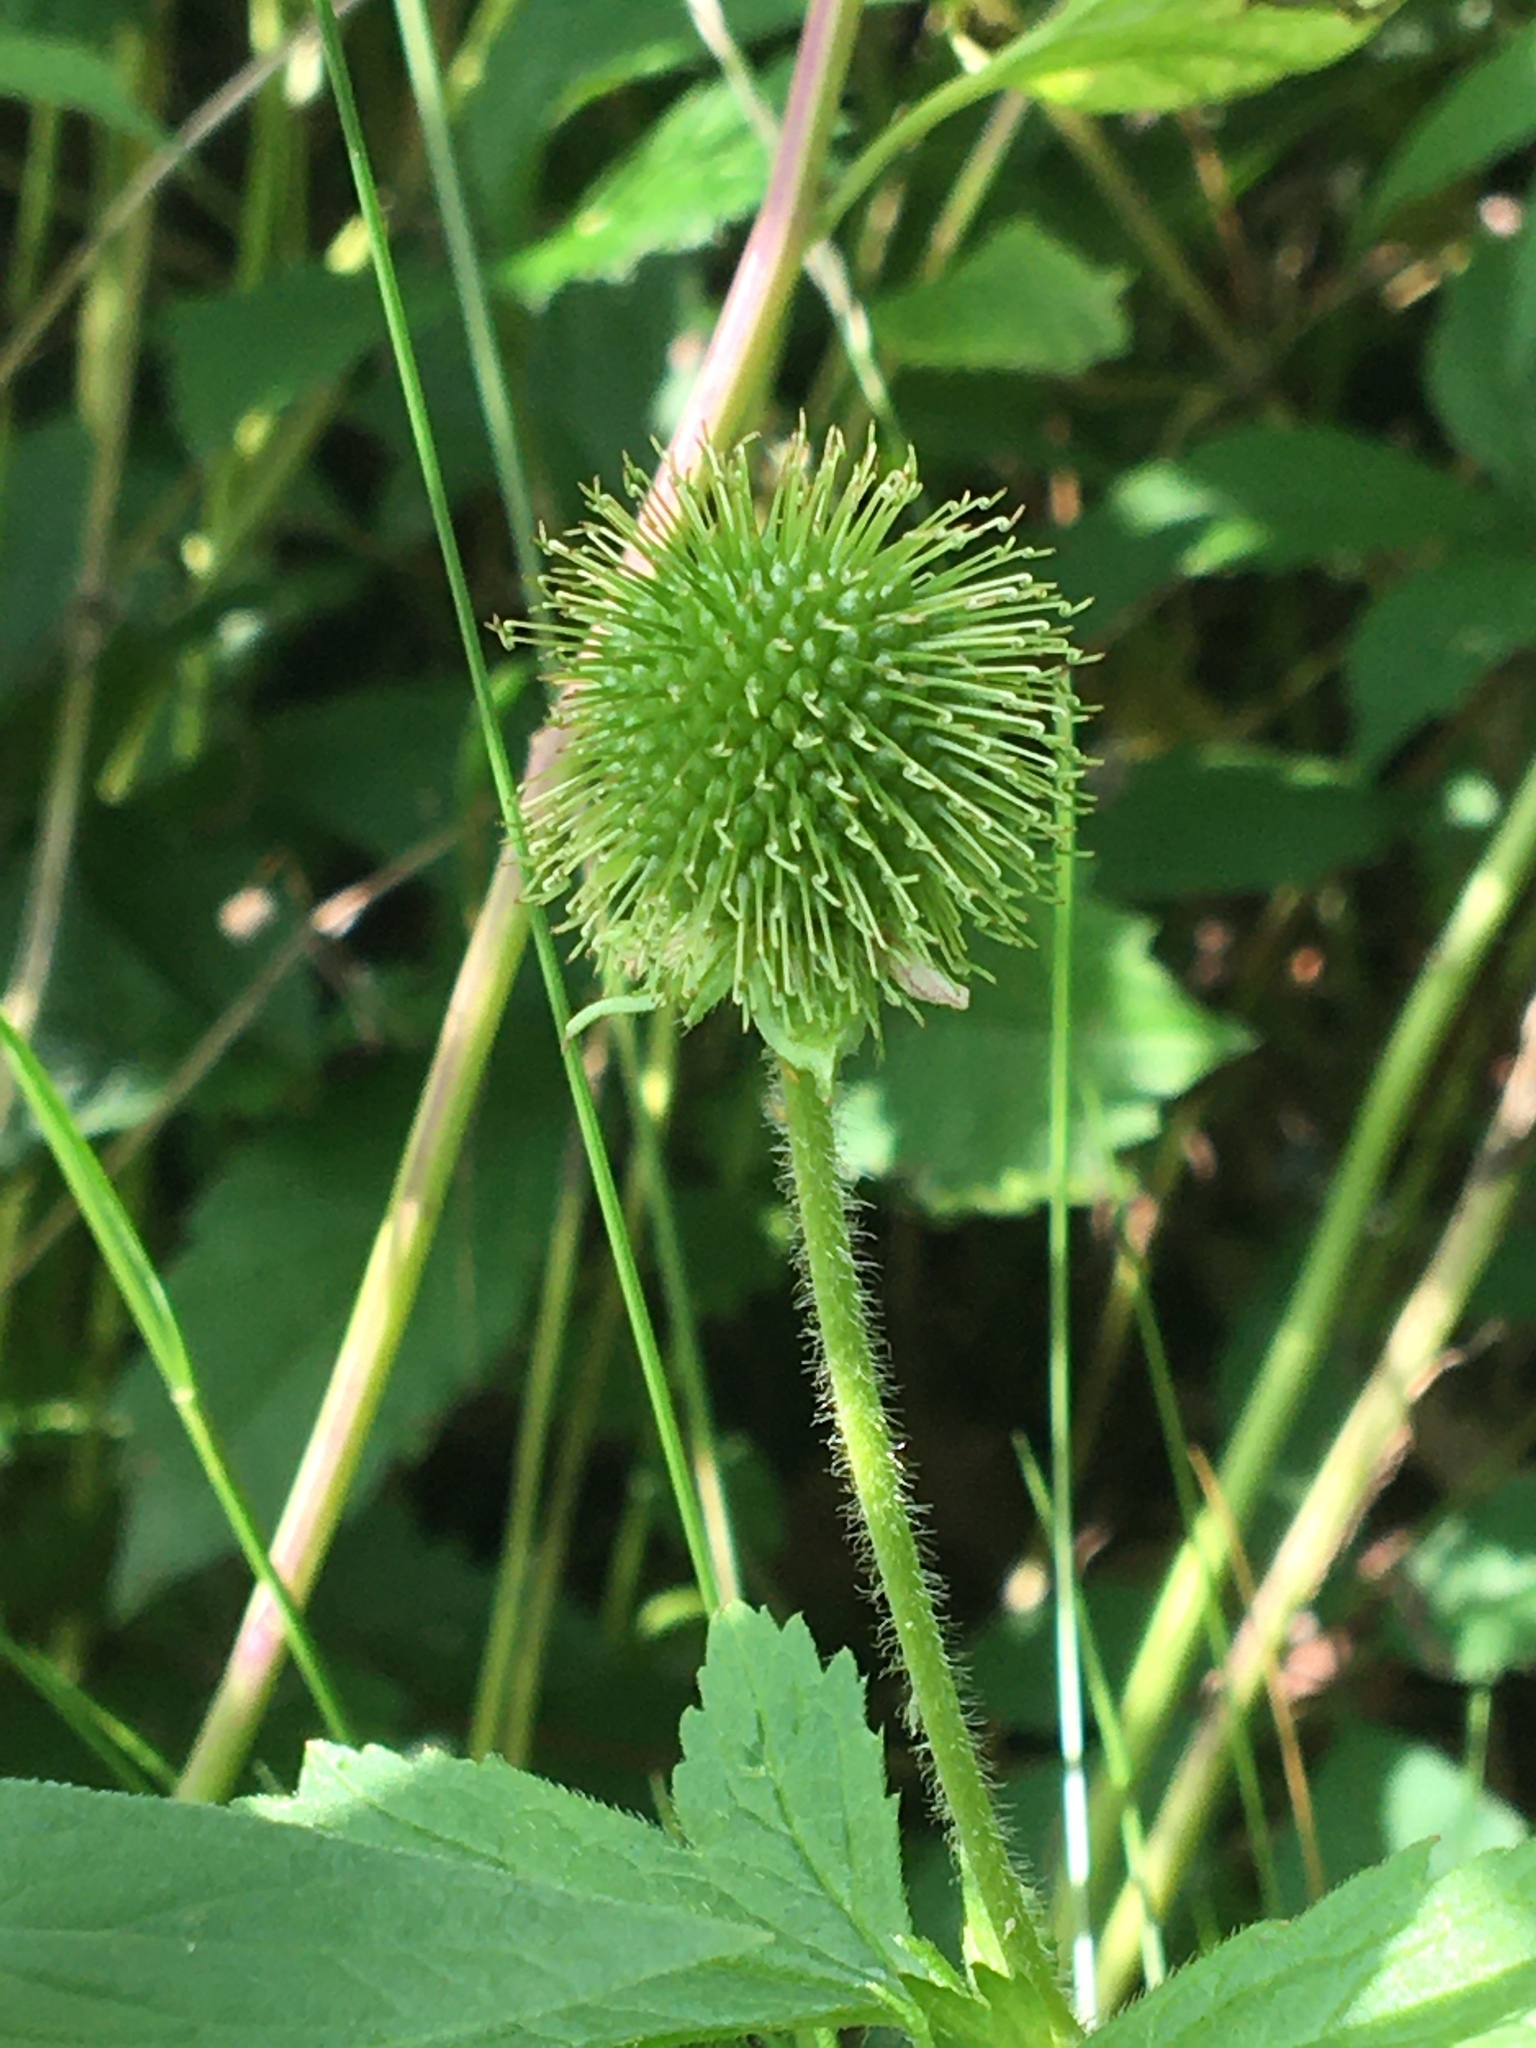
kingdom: Plantae
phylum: Tracheophyta
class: Magnoliopsida
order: Rosales
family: Rosaceae
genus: Geum
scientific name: Geum laciniatum
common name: Rough avens
